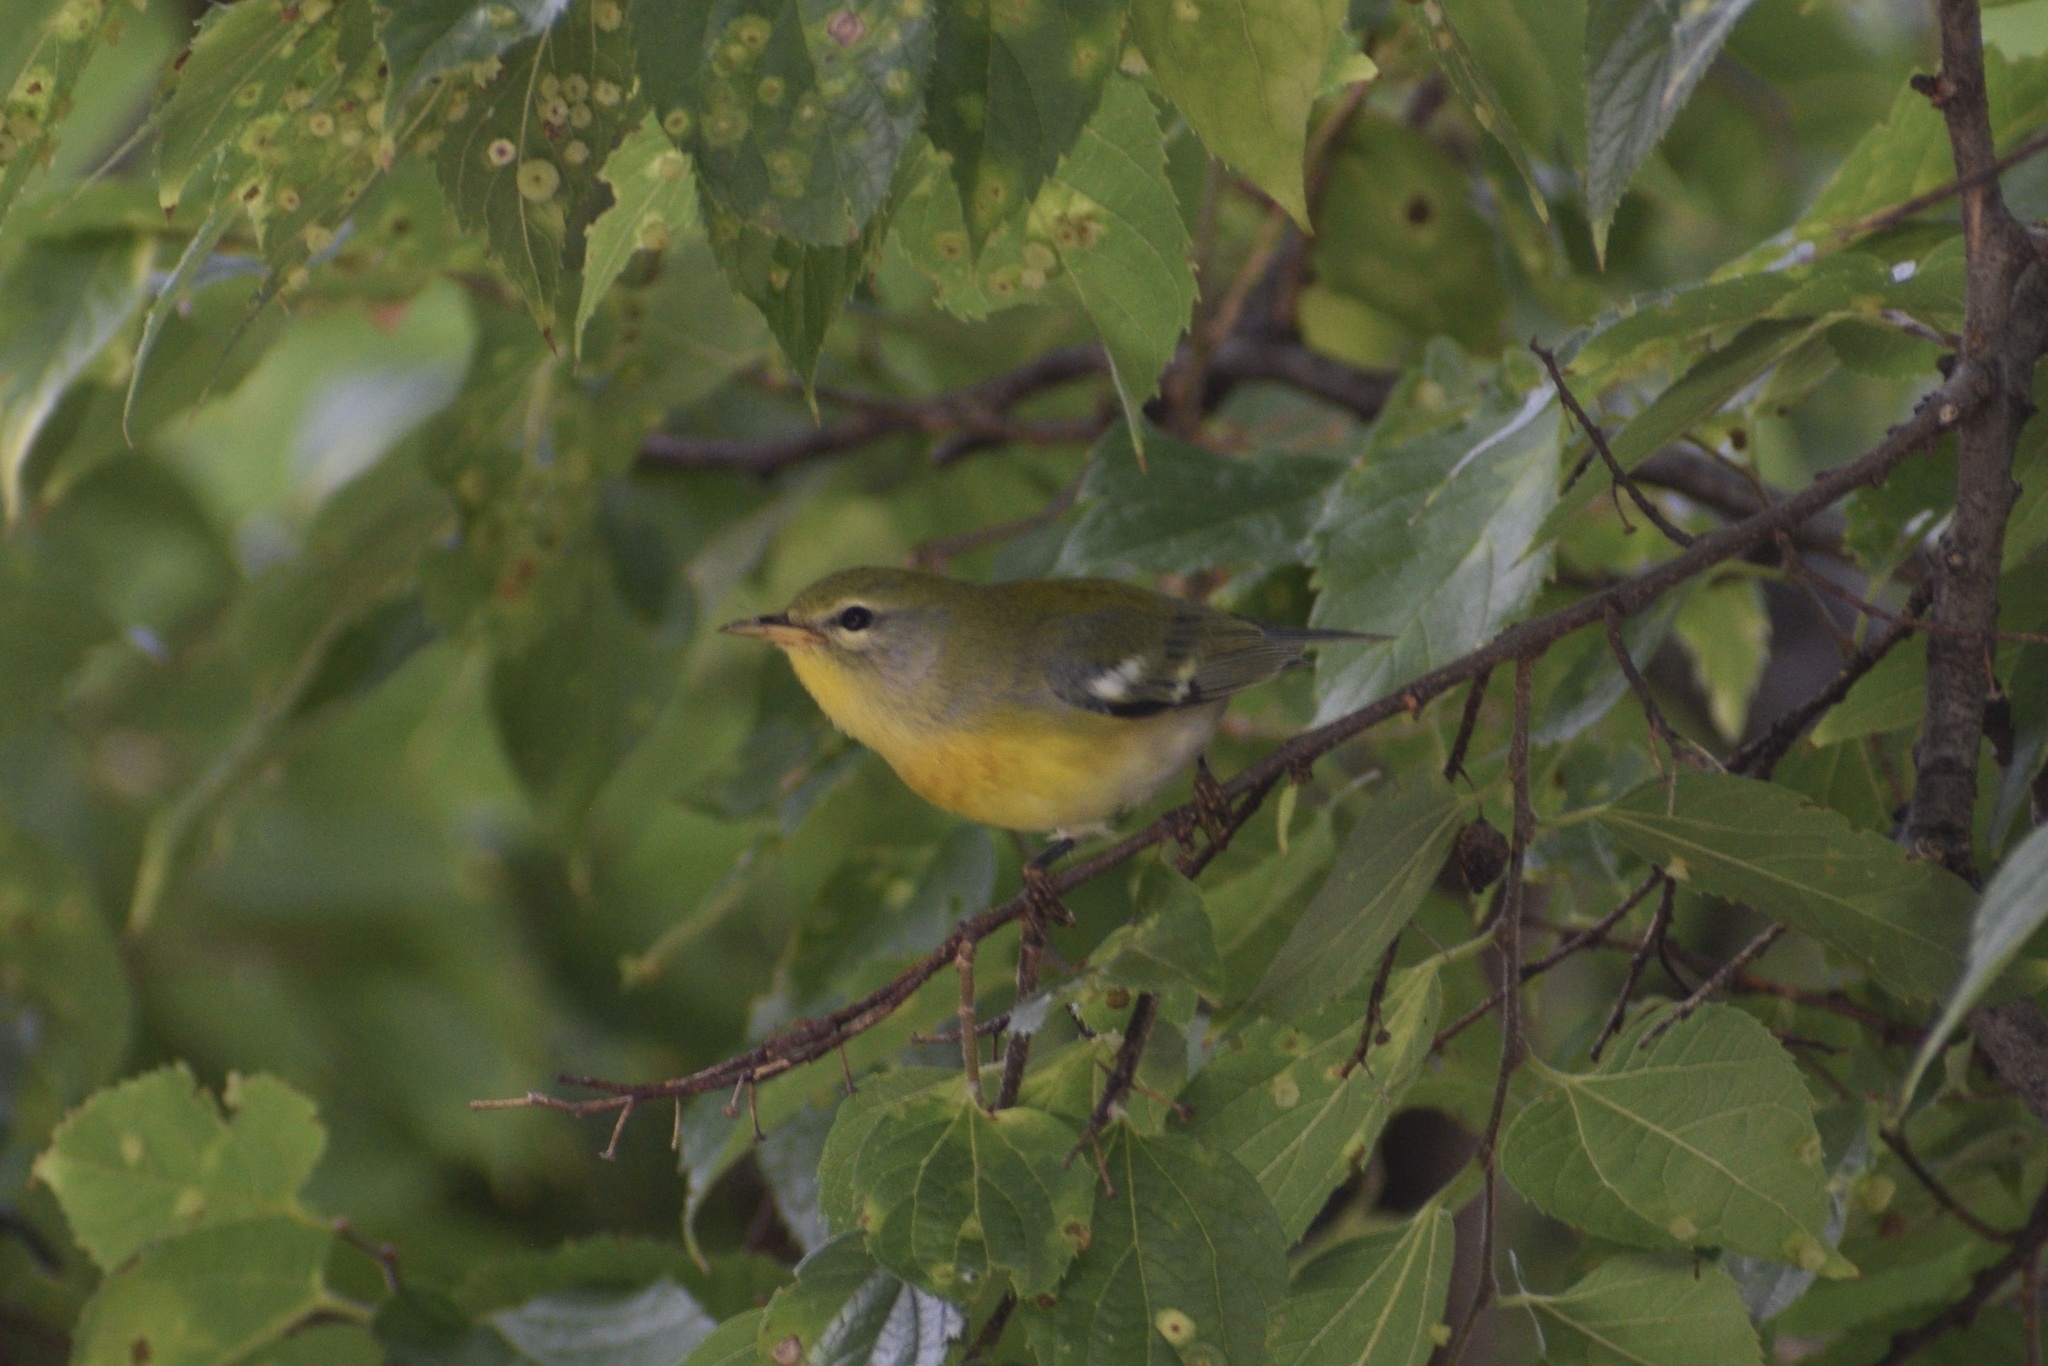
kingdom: Animalia
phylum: Chordata
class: Aves
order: Passeriformes
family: Parulidae
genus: Setophaga
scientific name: Setophaga americana
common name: Northern parula
